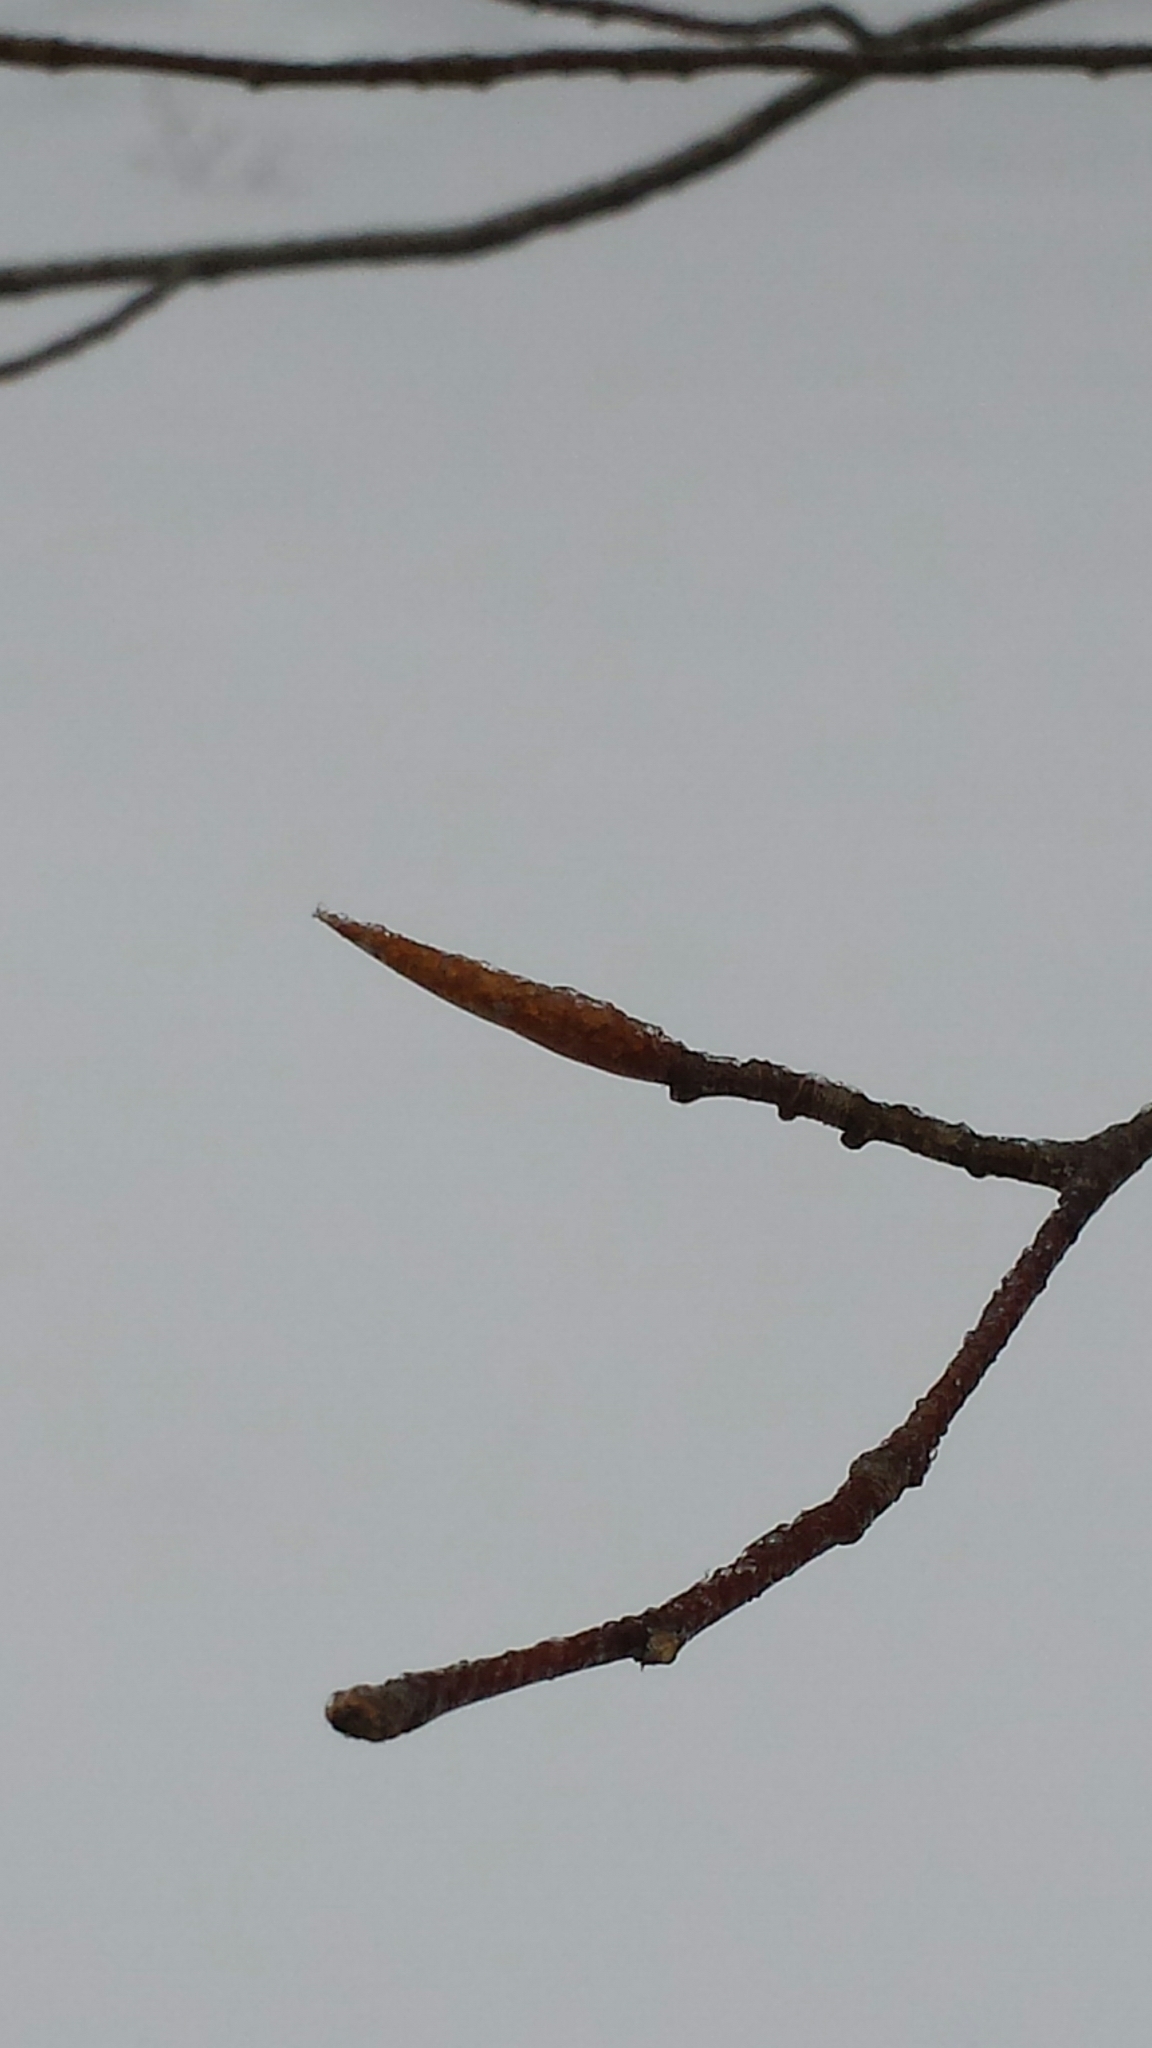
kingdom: Plantae
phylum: Tracheophyta
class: Magnoliopsida
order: Fagales
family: Fagaceae
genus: Fagus
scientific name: Fagus grandifolia
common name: American beech
